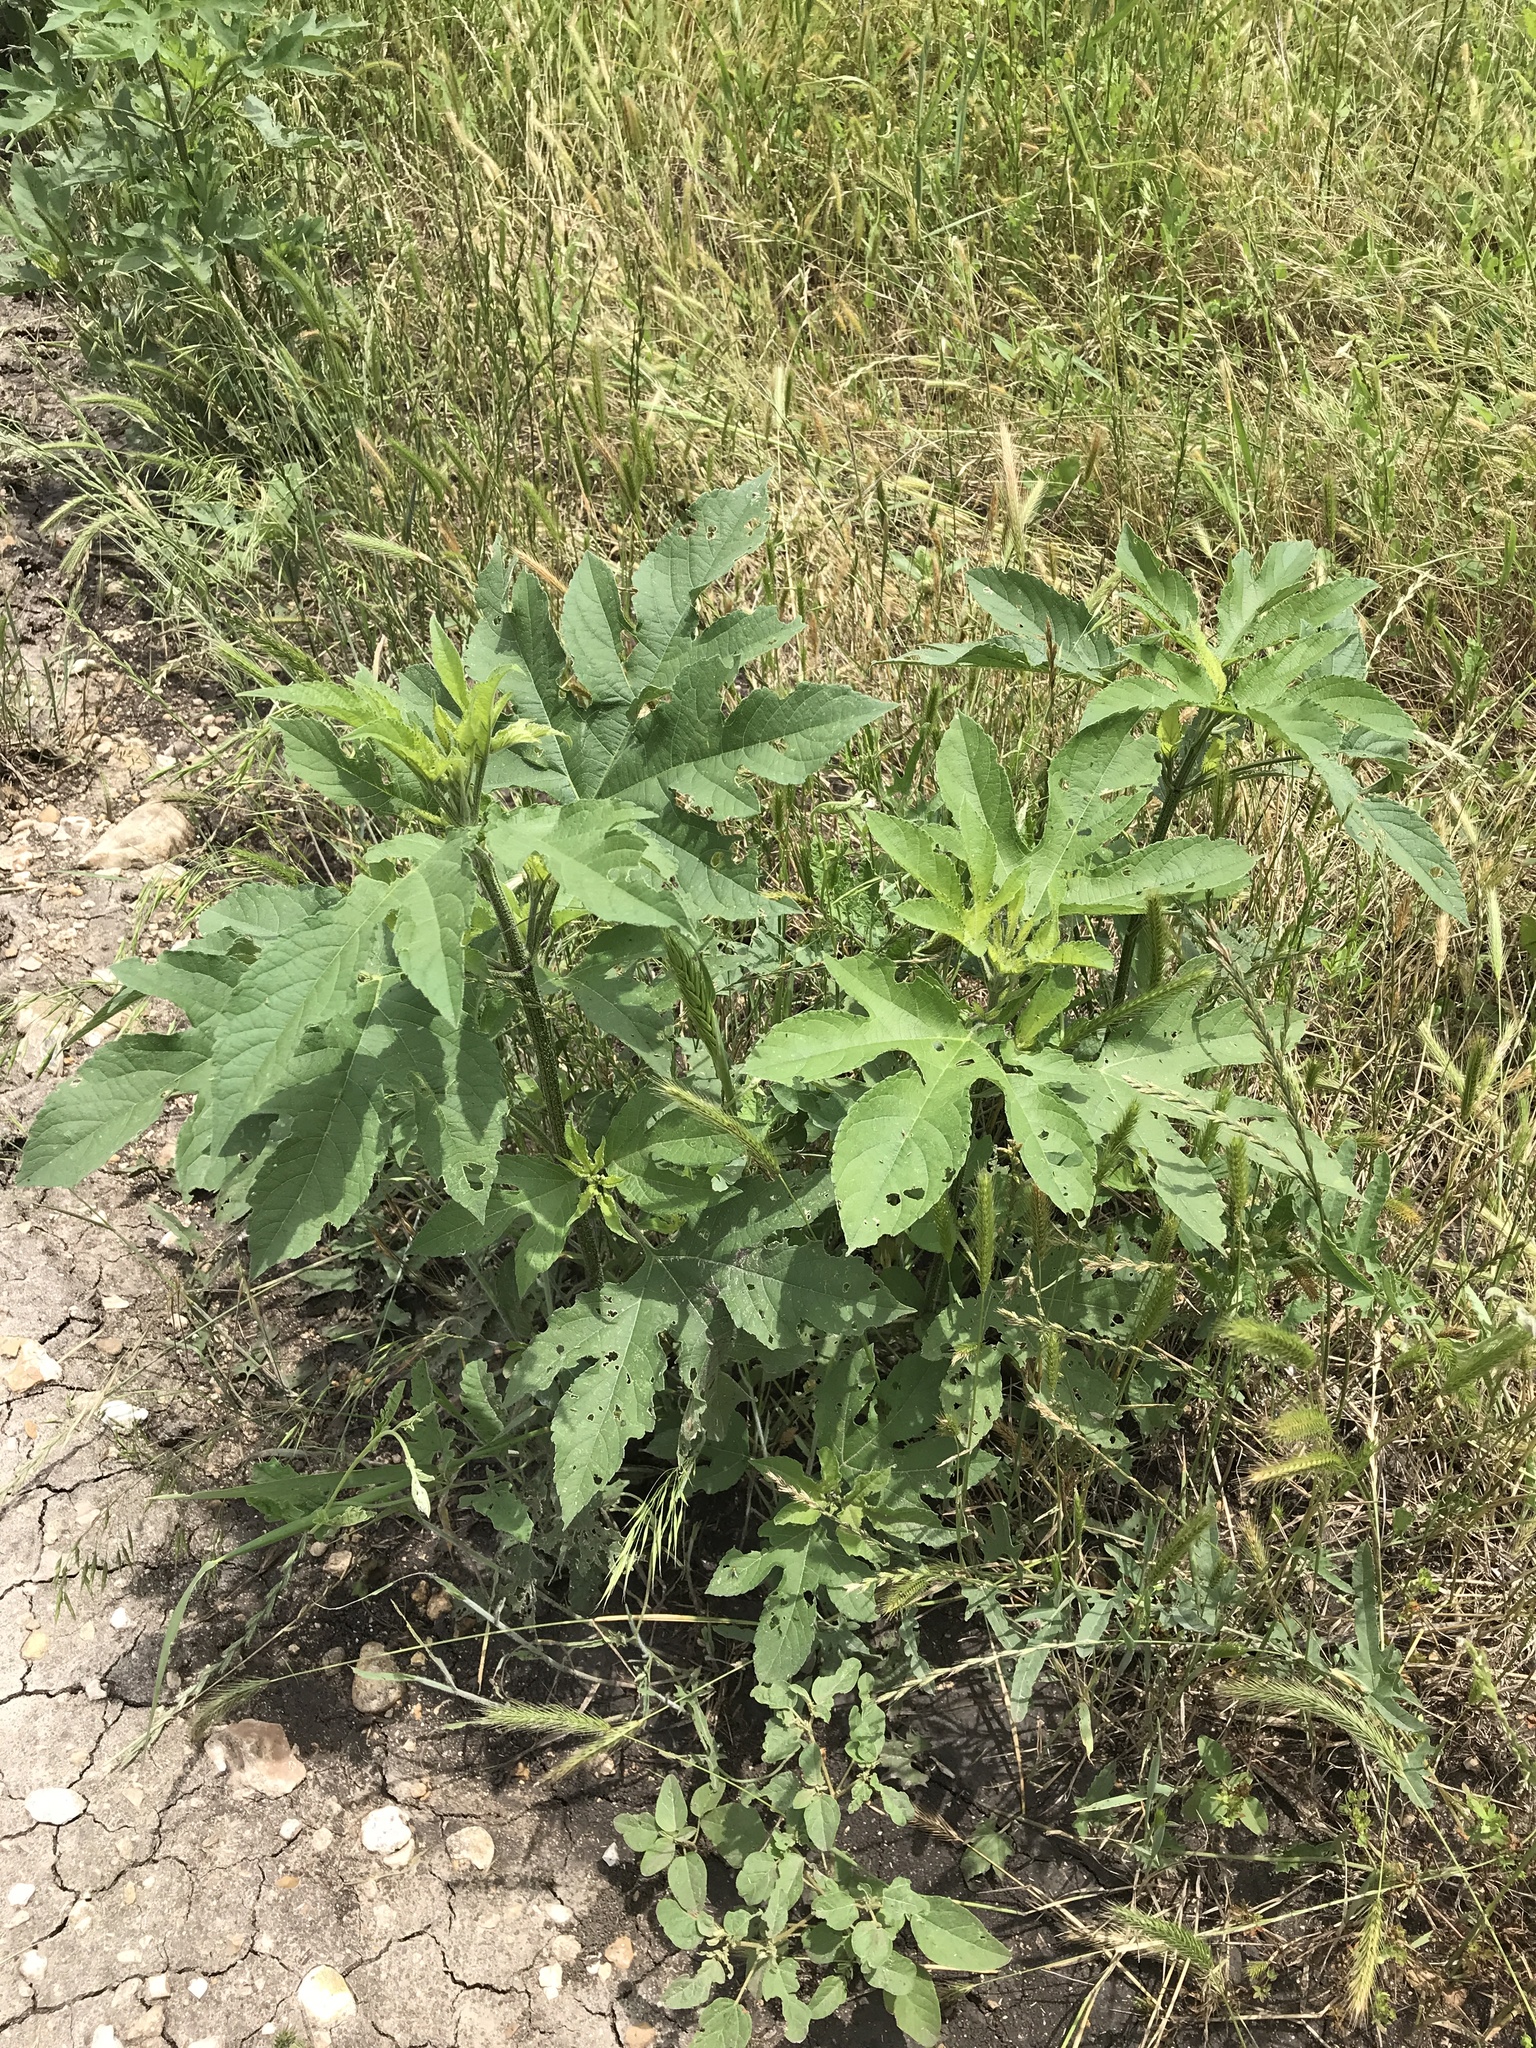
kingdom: Plantae
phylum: Tracheophyta
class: Magnoliopsida
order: Asterales
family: Asteraceae
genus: Ambrosia
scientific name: Ambrosia trifida
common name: Giant ragweed
